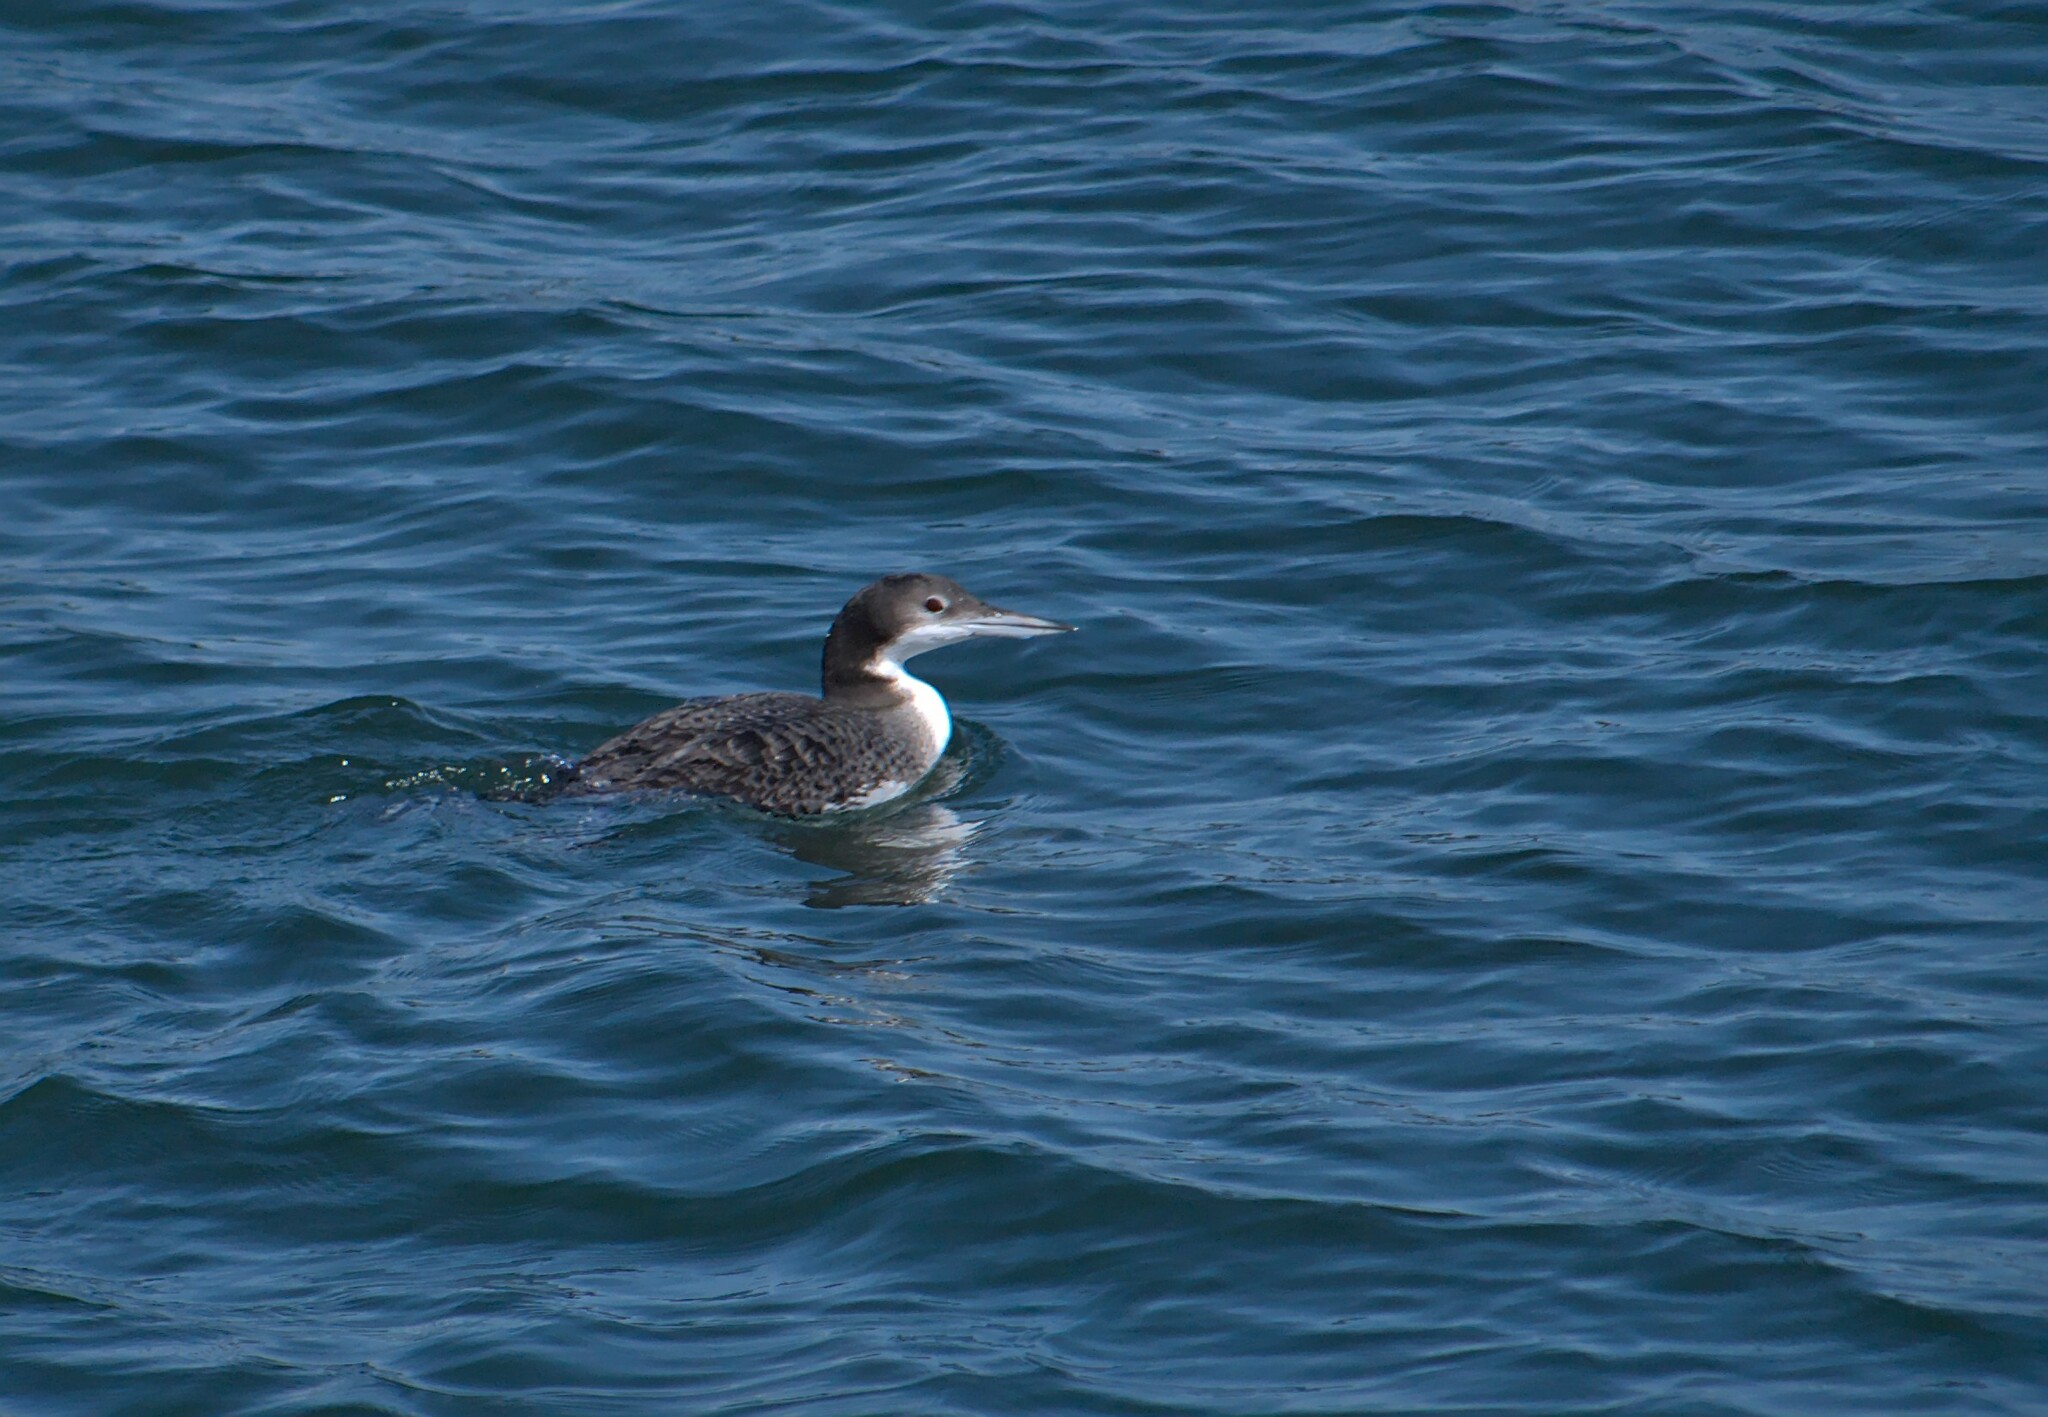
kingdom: Animalia
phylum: Chordata
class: Aves
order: Gaviiformes
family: Gaviidae
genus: Gavia
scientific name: Gavia immer
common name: Common loon
